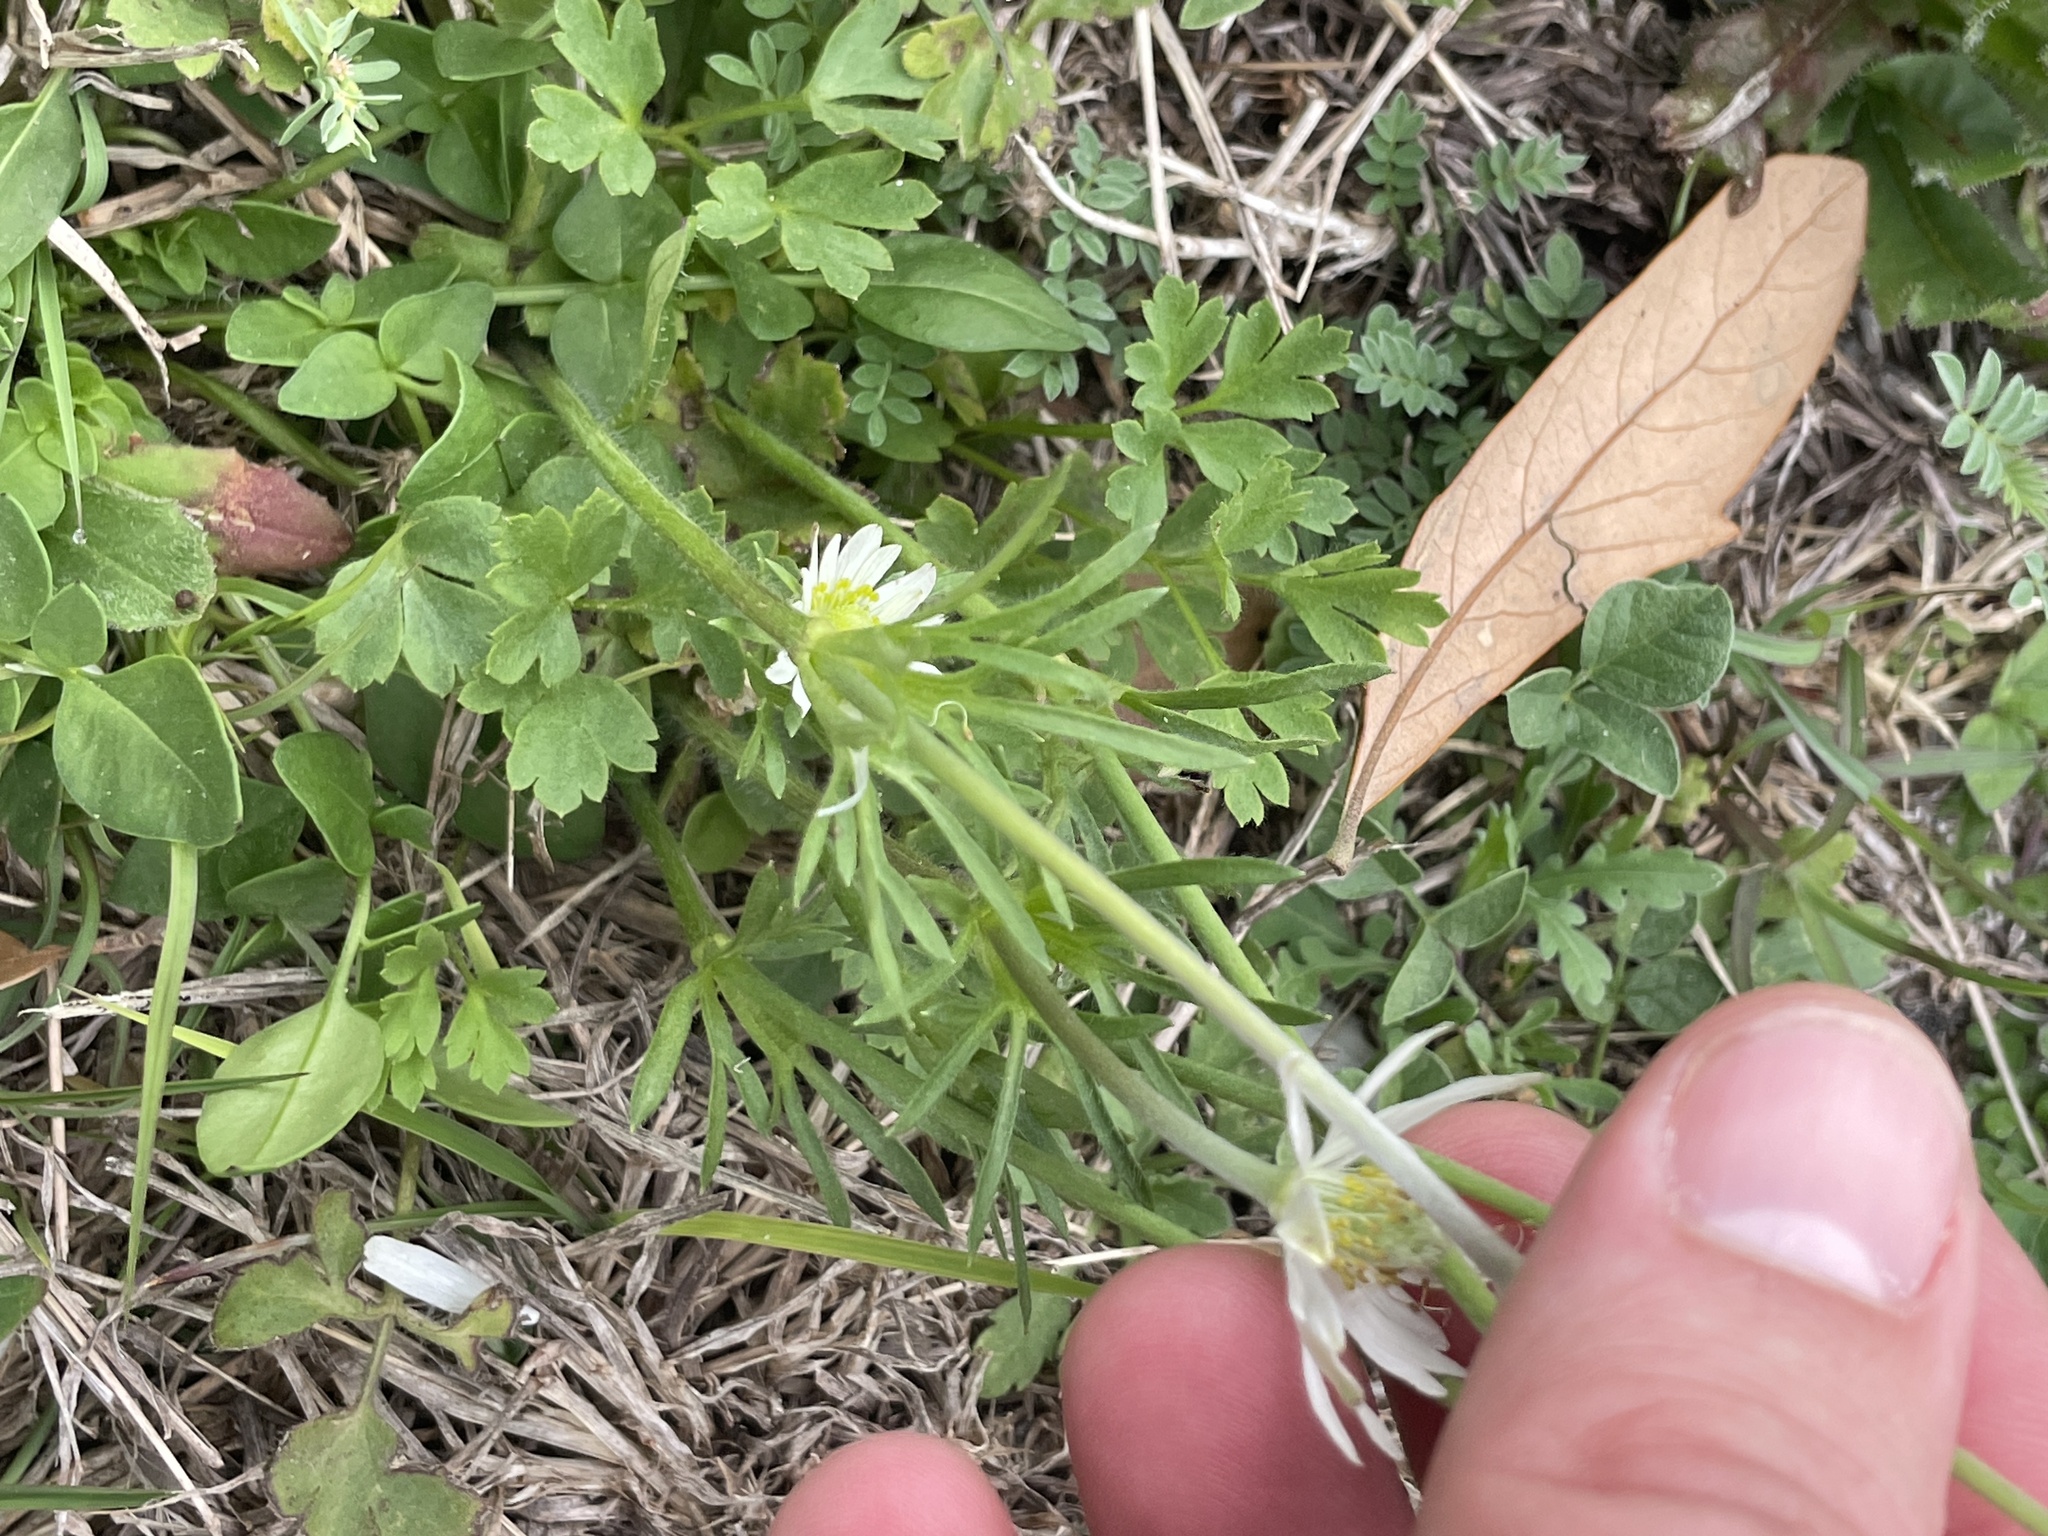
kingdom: Plantae
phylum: Tracheophyta
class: Magnoliopsida
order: Ranunculales
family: Ranunculaceae
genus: Anemone
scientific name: Anemone berlandieri
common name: Ten-petal anemone
